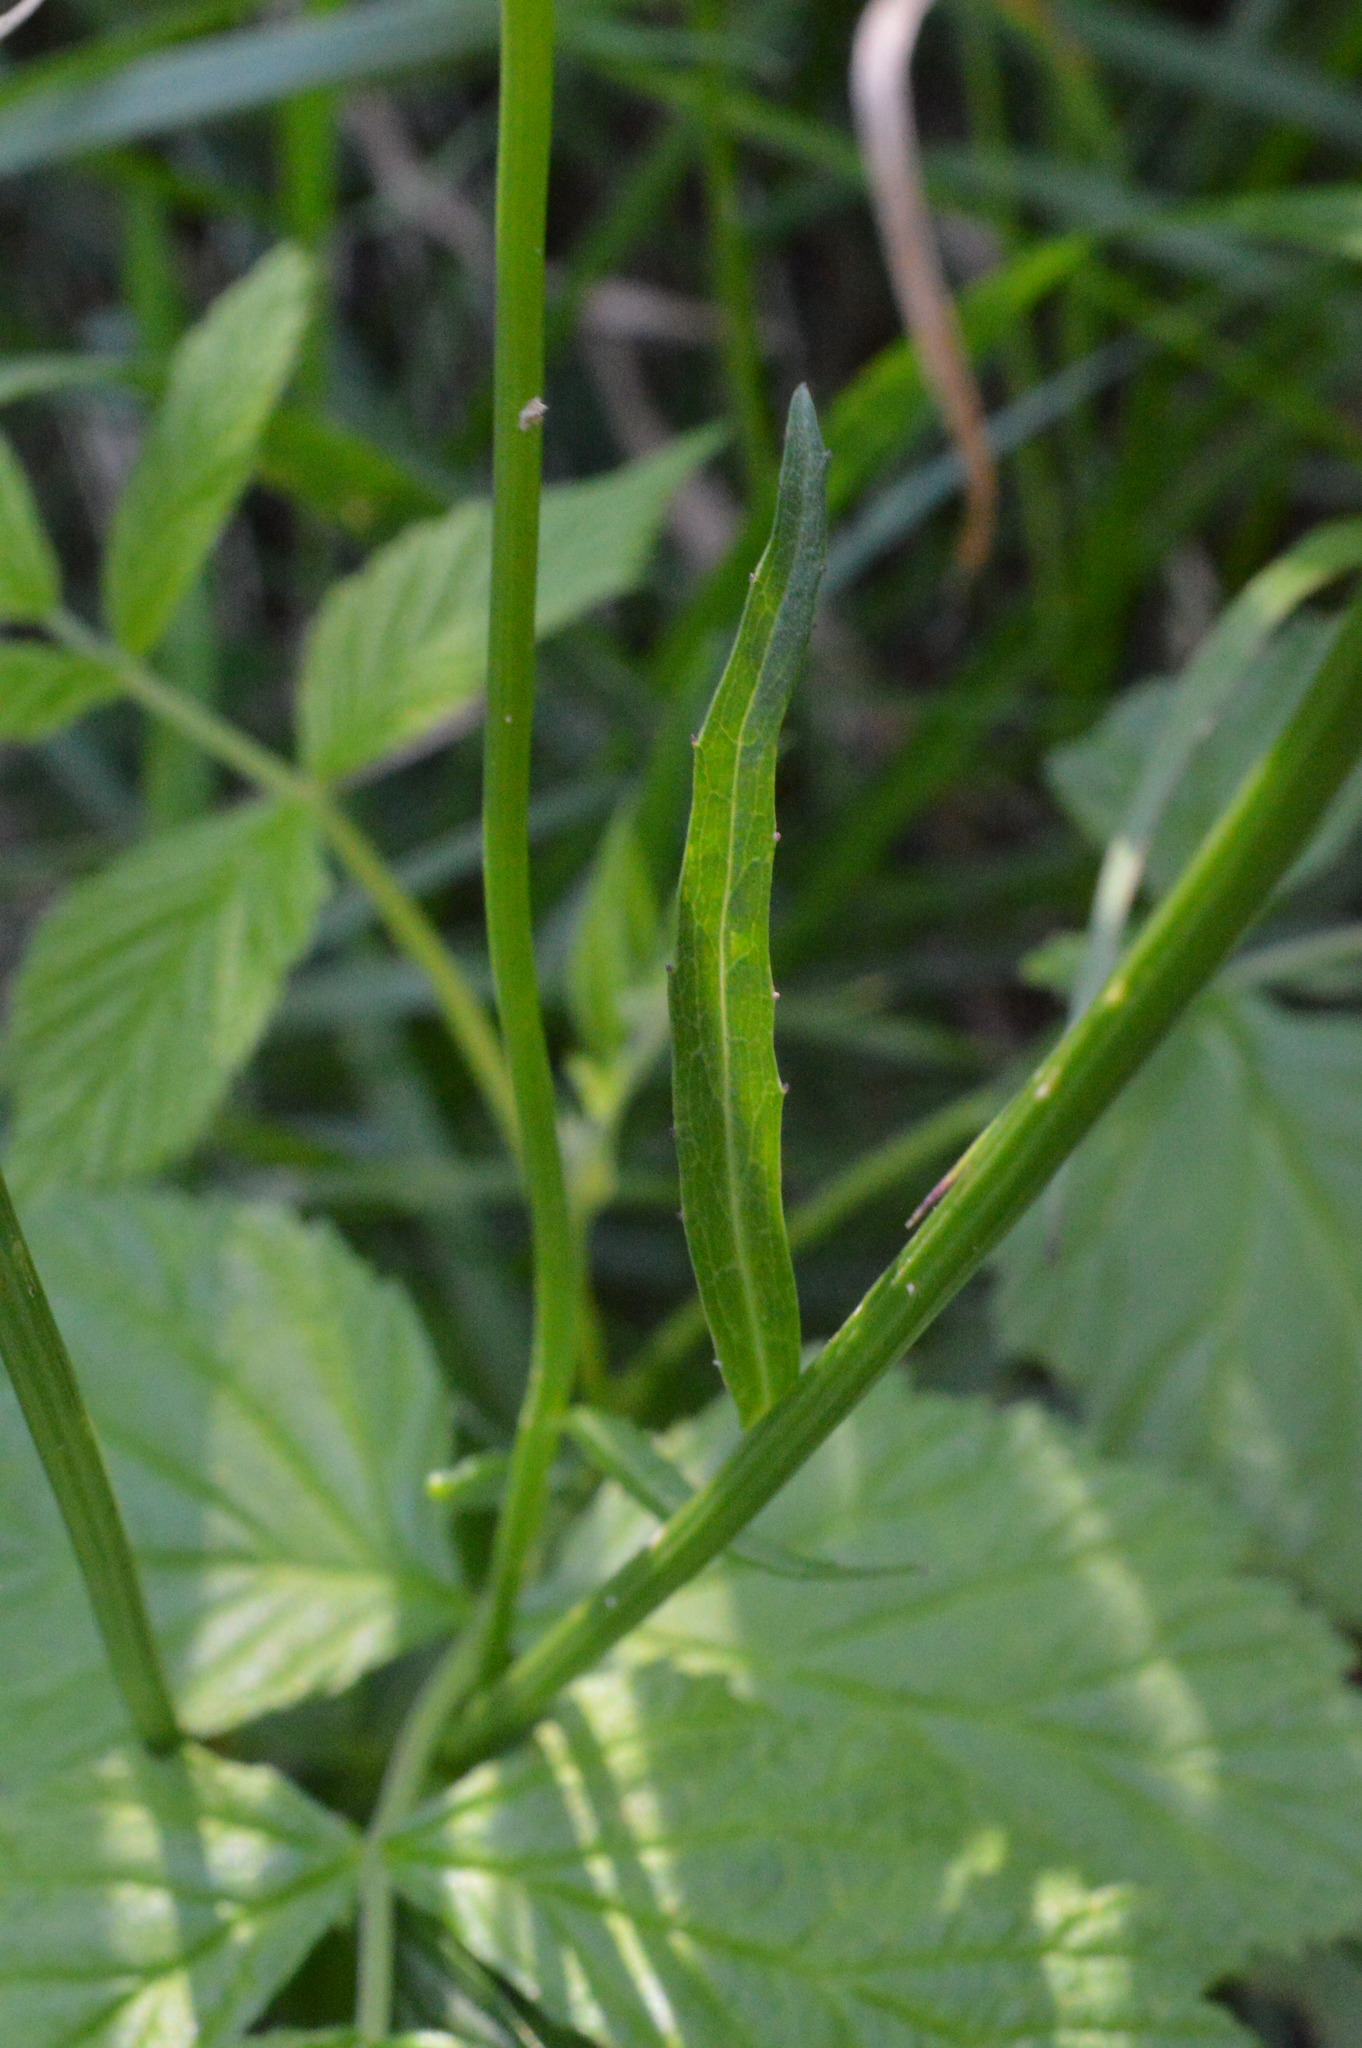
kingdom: Plantae
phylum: Tracheophyta
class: Magnoliopsida
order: Asterales
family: Campanulaceae
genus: Phyteuma
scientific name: Phyteuma betonicifolium
